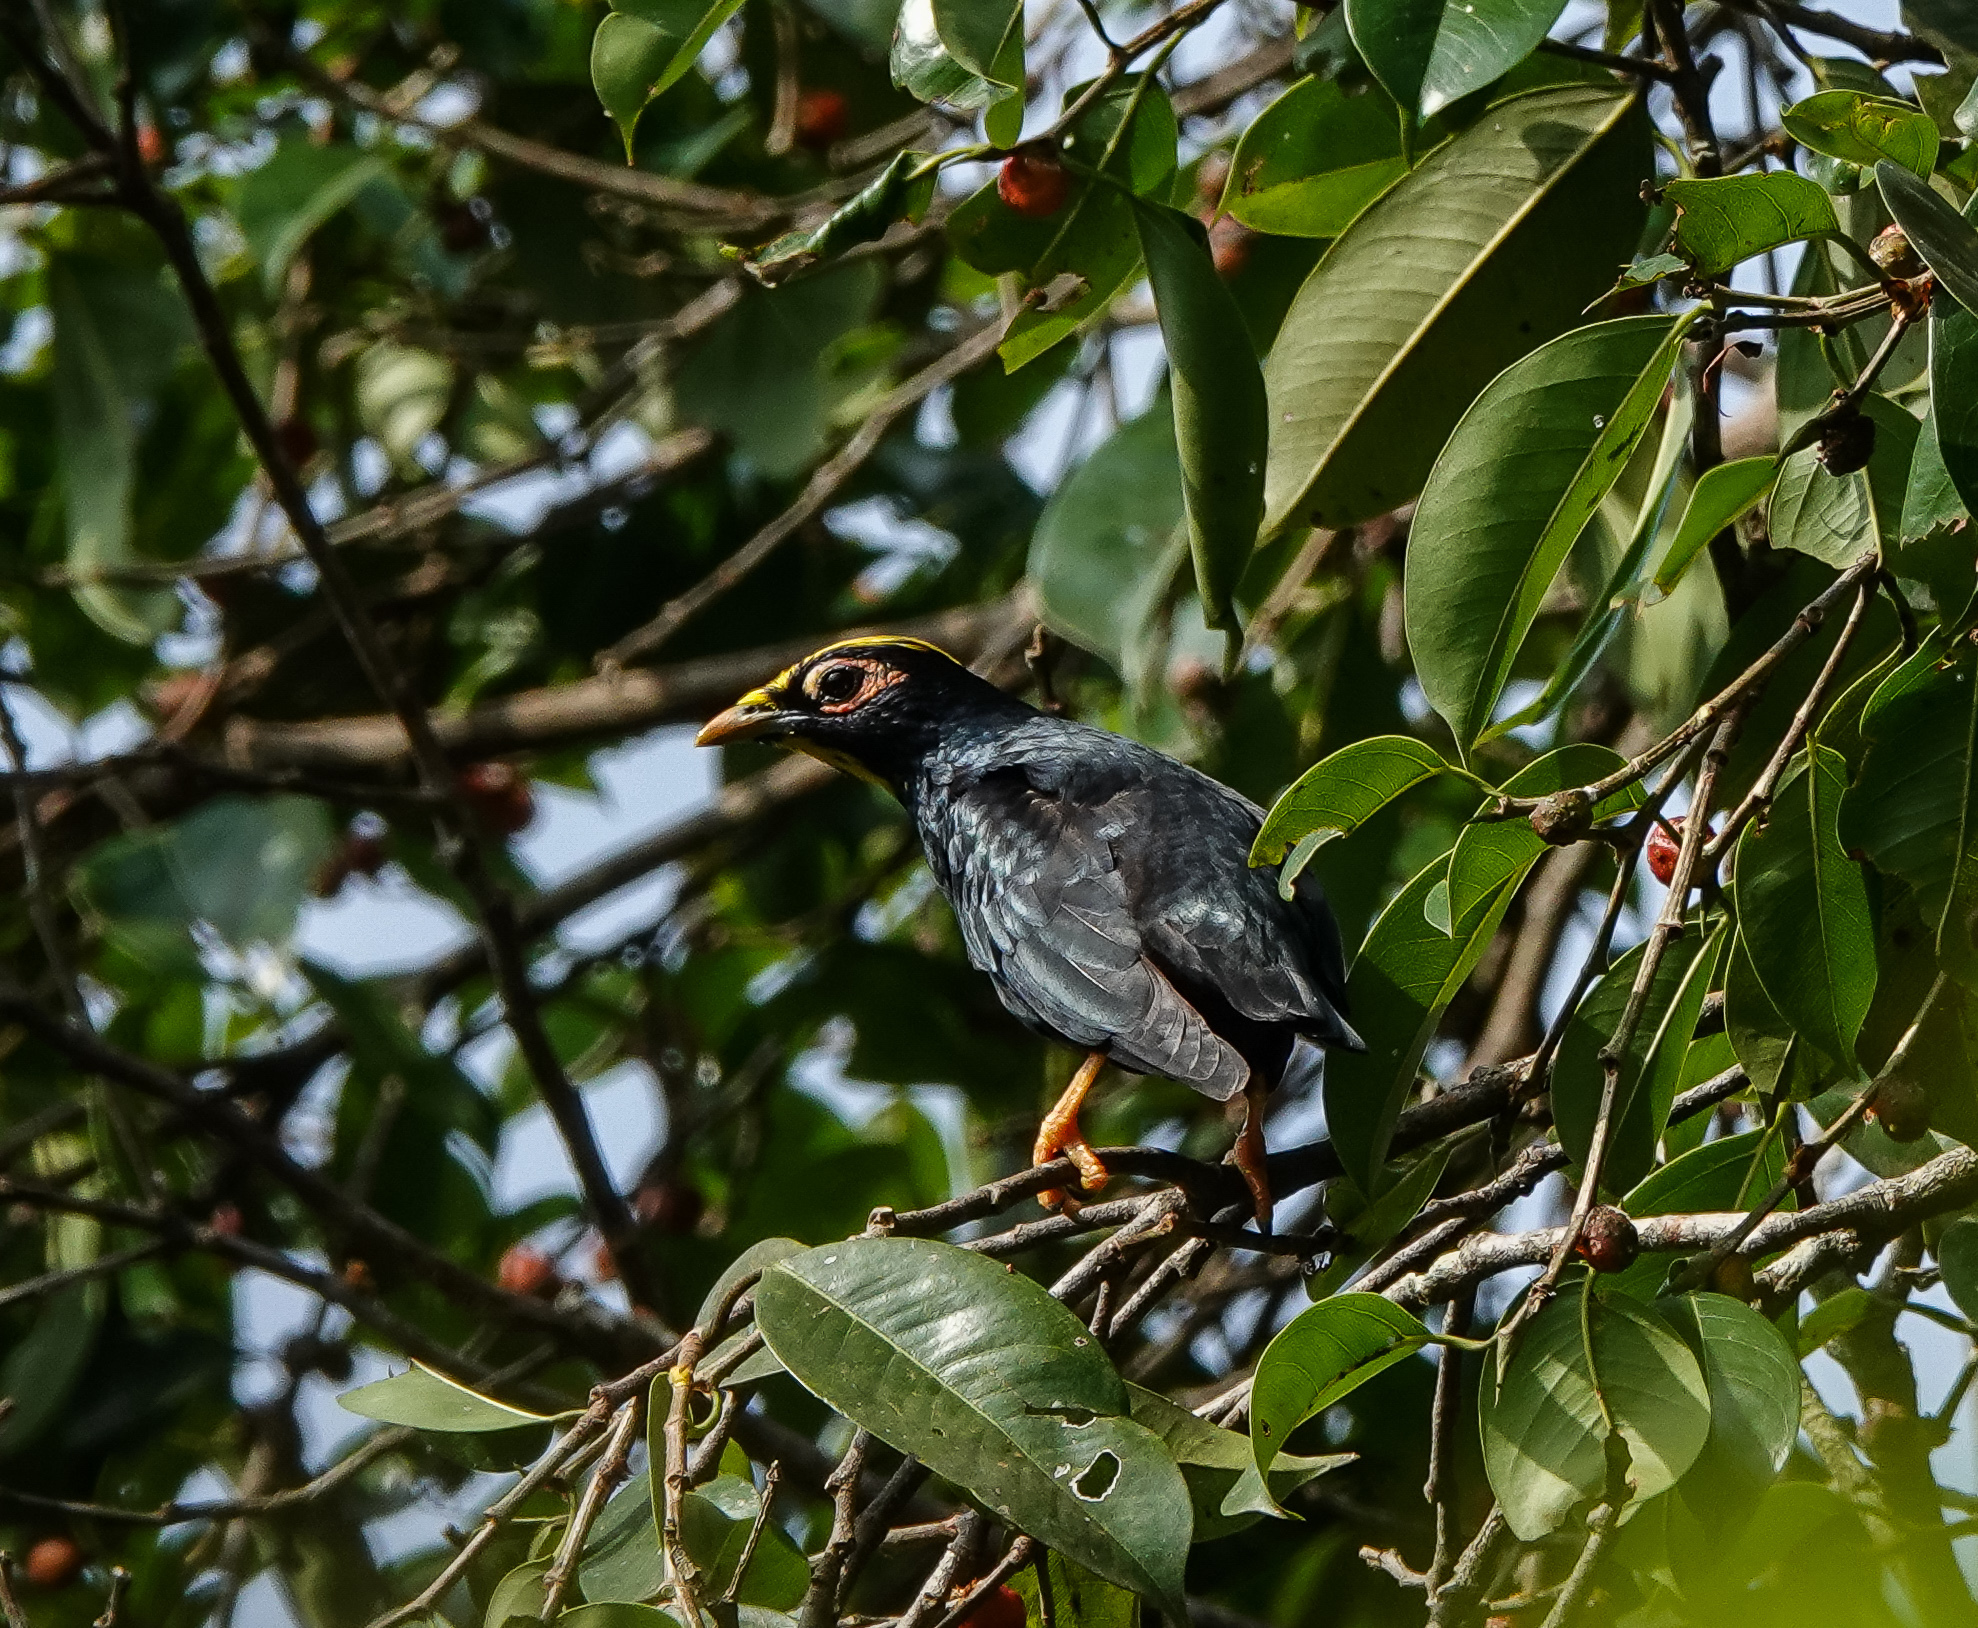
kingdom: Animalia
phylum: Chordata
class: Aves
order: Passeriformes
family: Sturnidae
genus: Ampeliceps
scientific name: Ampeliceps coronatus
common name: Golden-crested myna
